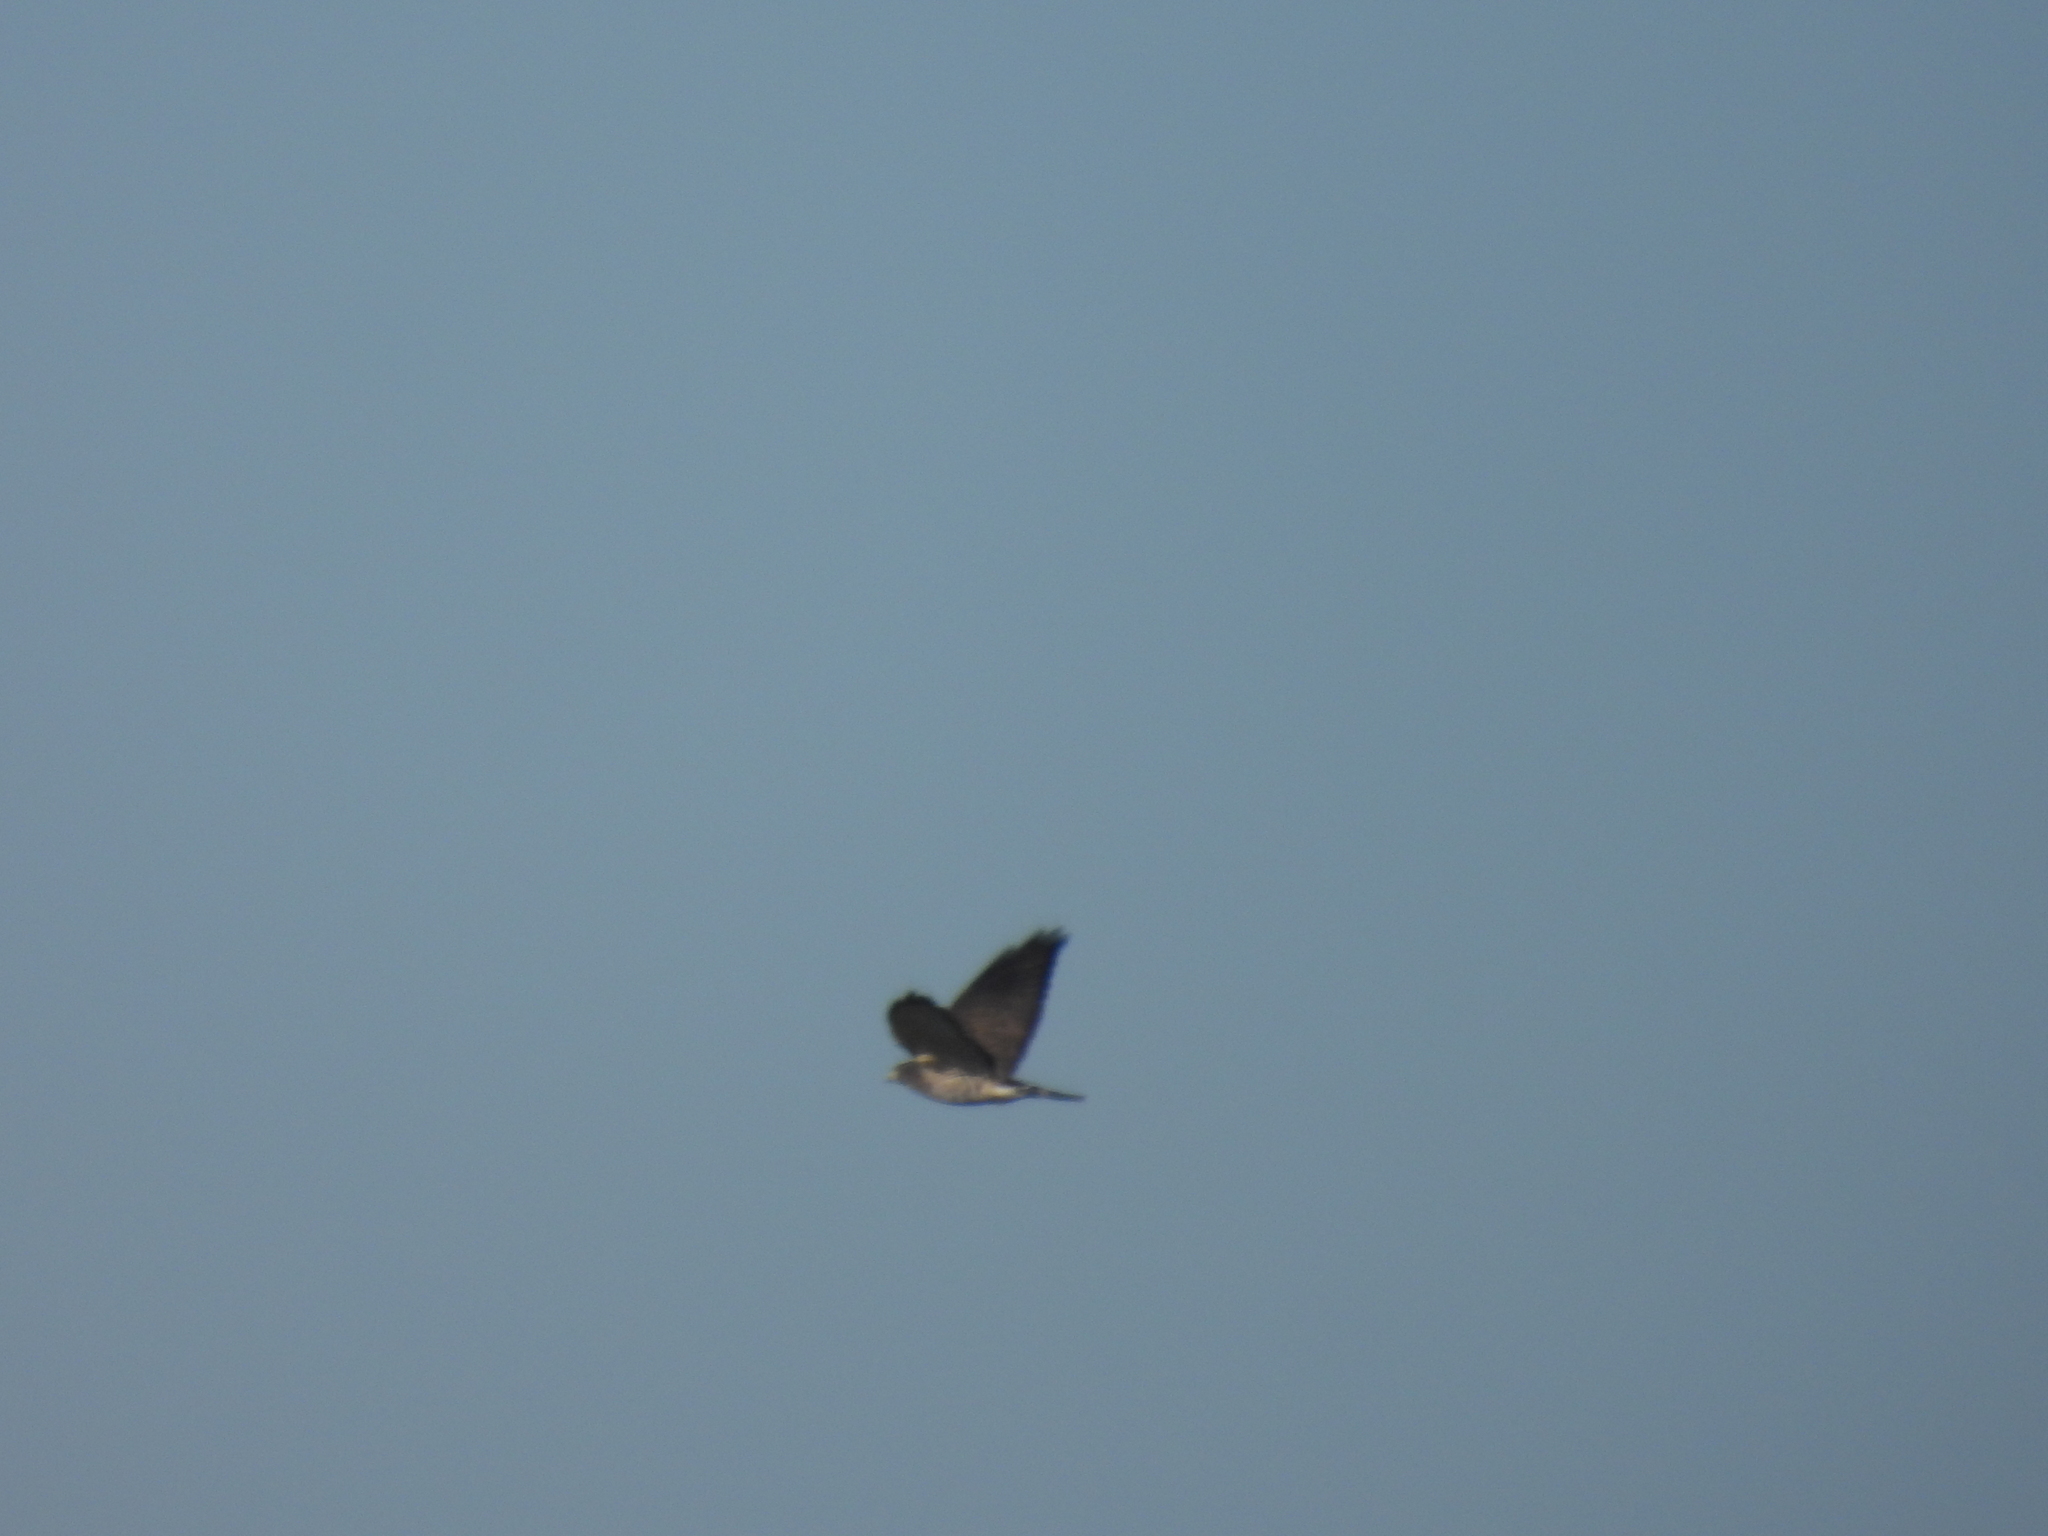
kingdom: Animalia
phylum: Chordata
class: Aves
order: Accipitriformes
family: Accipitridae
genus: Buteo
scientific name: Buteo platypterus
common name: Broad-winged hawk
